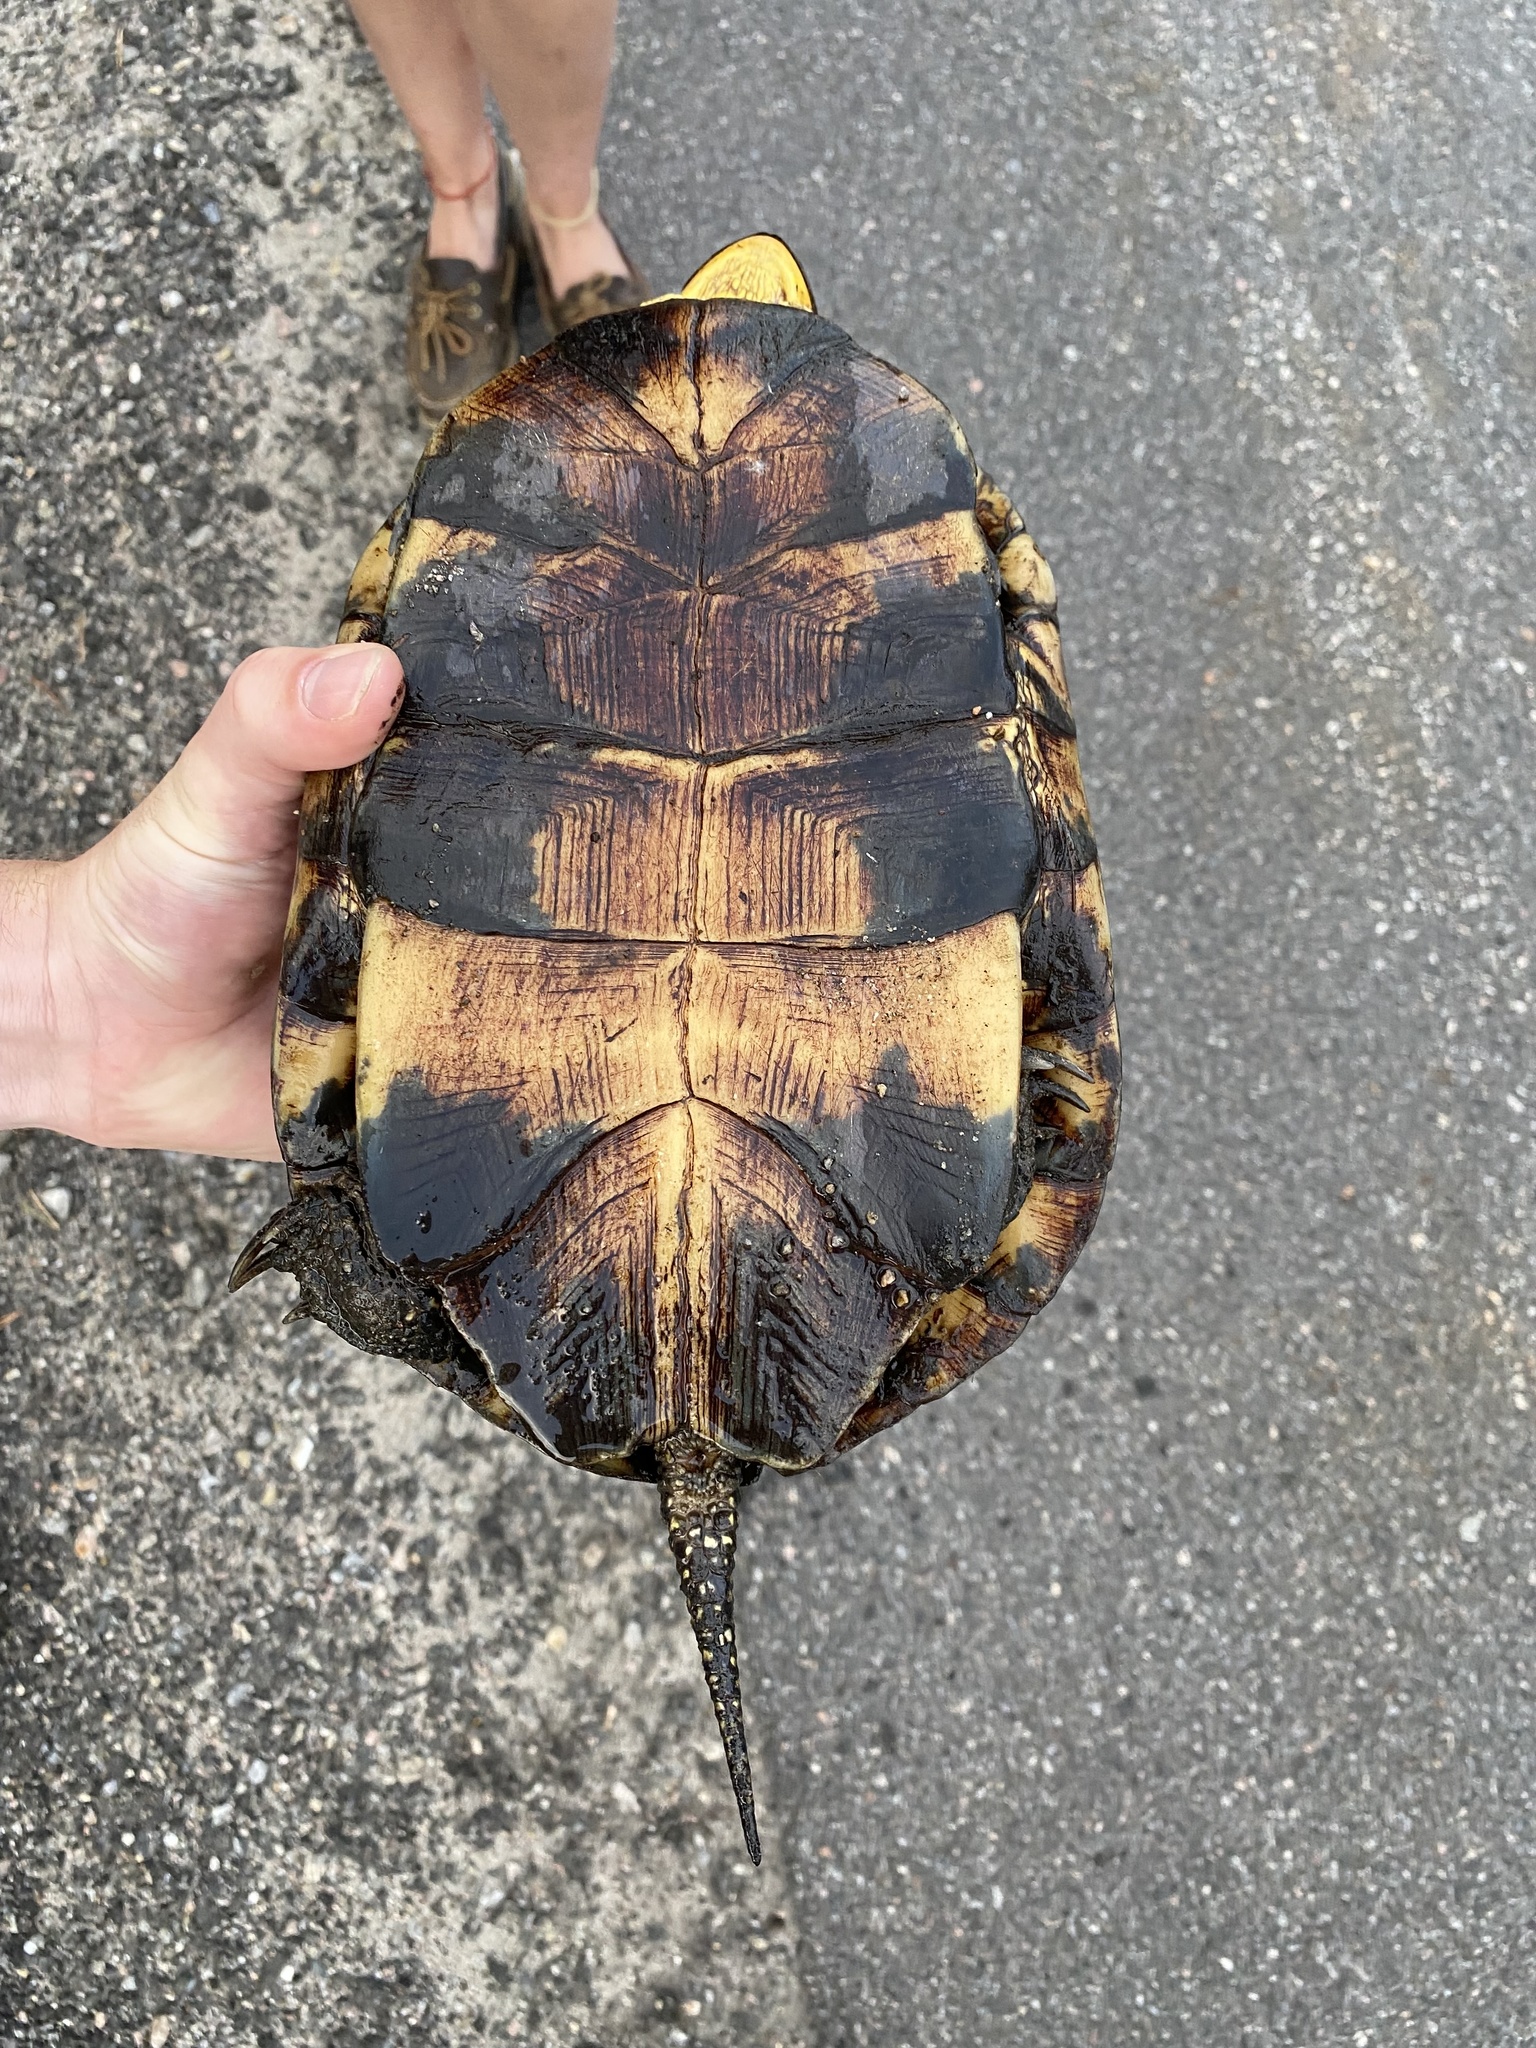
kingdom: Animalia
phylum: Chordata
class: Testudines
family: Emydidae
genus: Emys
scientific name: Emys blandingii
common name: Blanding's turtle
